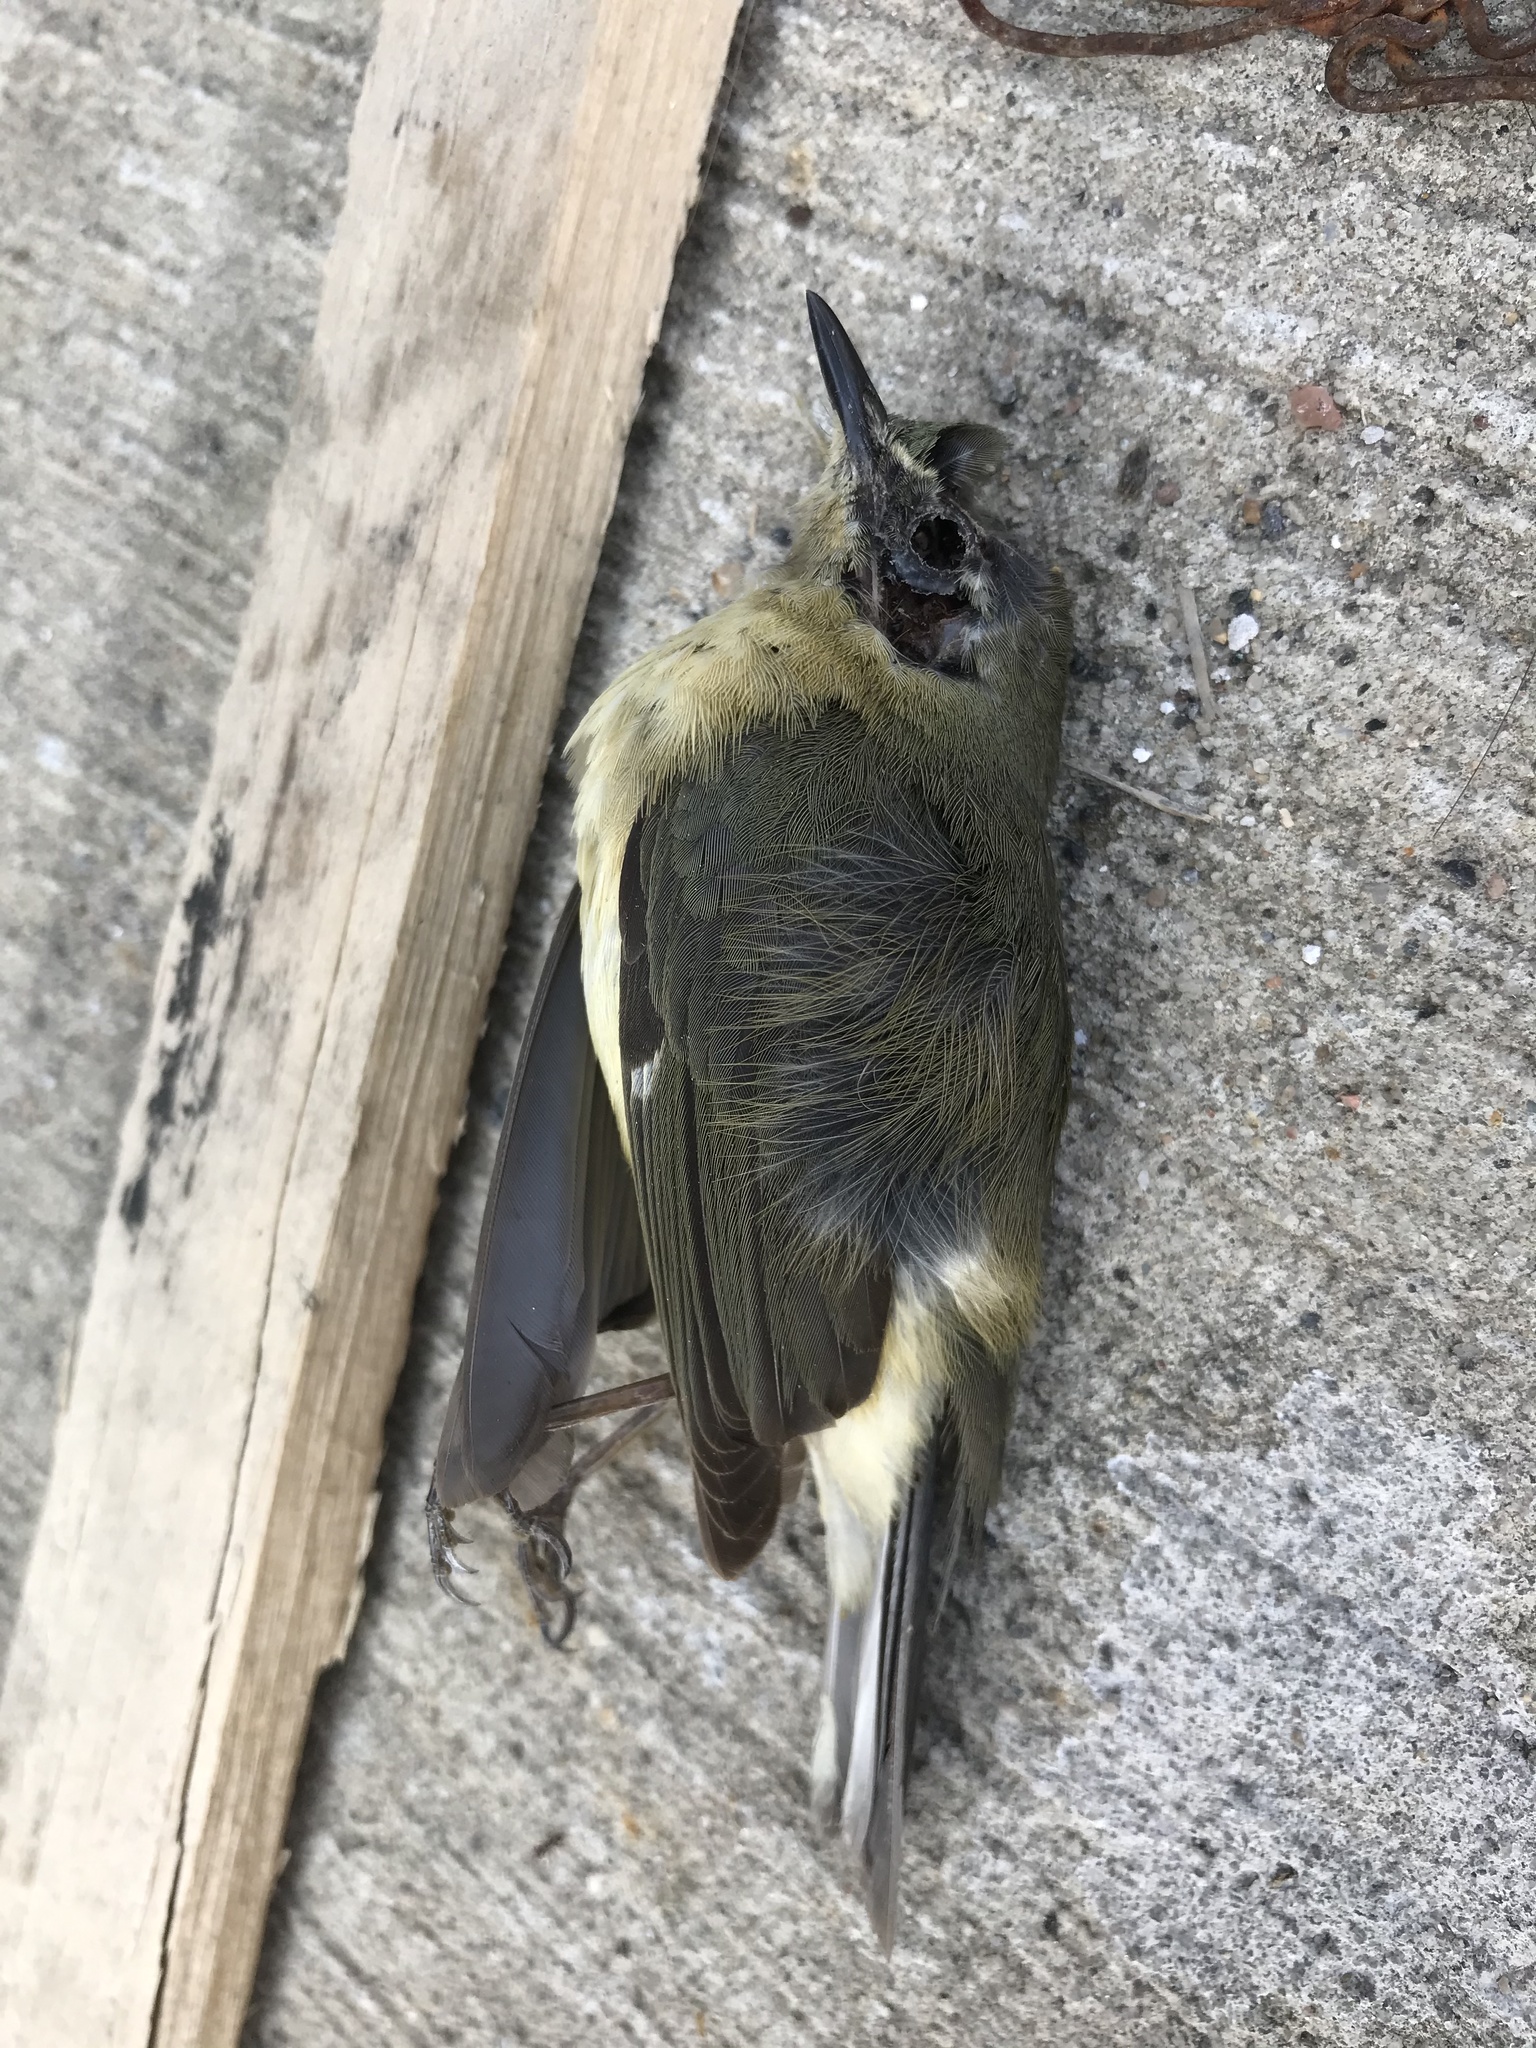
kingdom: Animalia
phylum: Chordata
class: Aves
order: Passeriformes
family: Parulidae
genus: Setophaga
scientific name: Setophaga caerulescens
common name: Black-throated blue warbler
